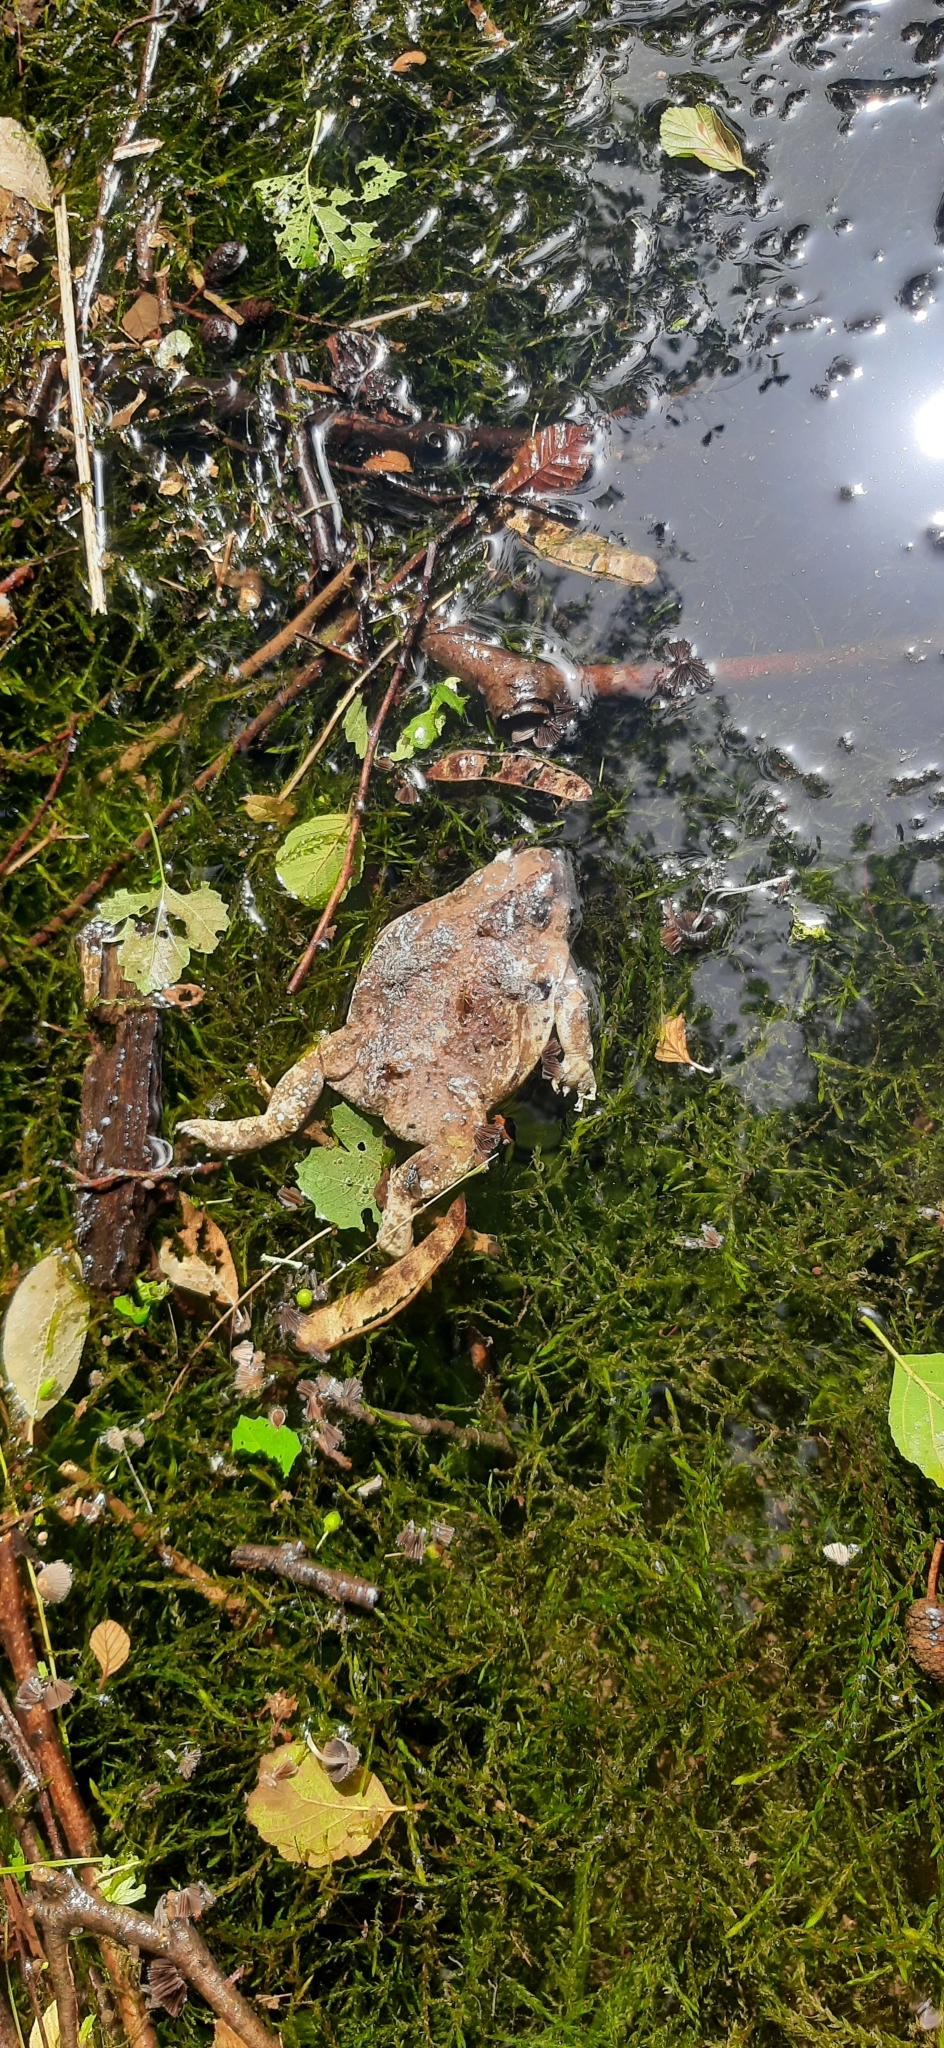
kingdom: Animalia
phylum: Chordata
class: Amphibia
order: Anura
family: Bufonidae
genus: Bufo
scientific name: Bufo bufo
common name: Common toad
